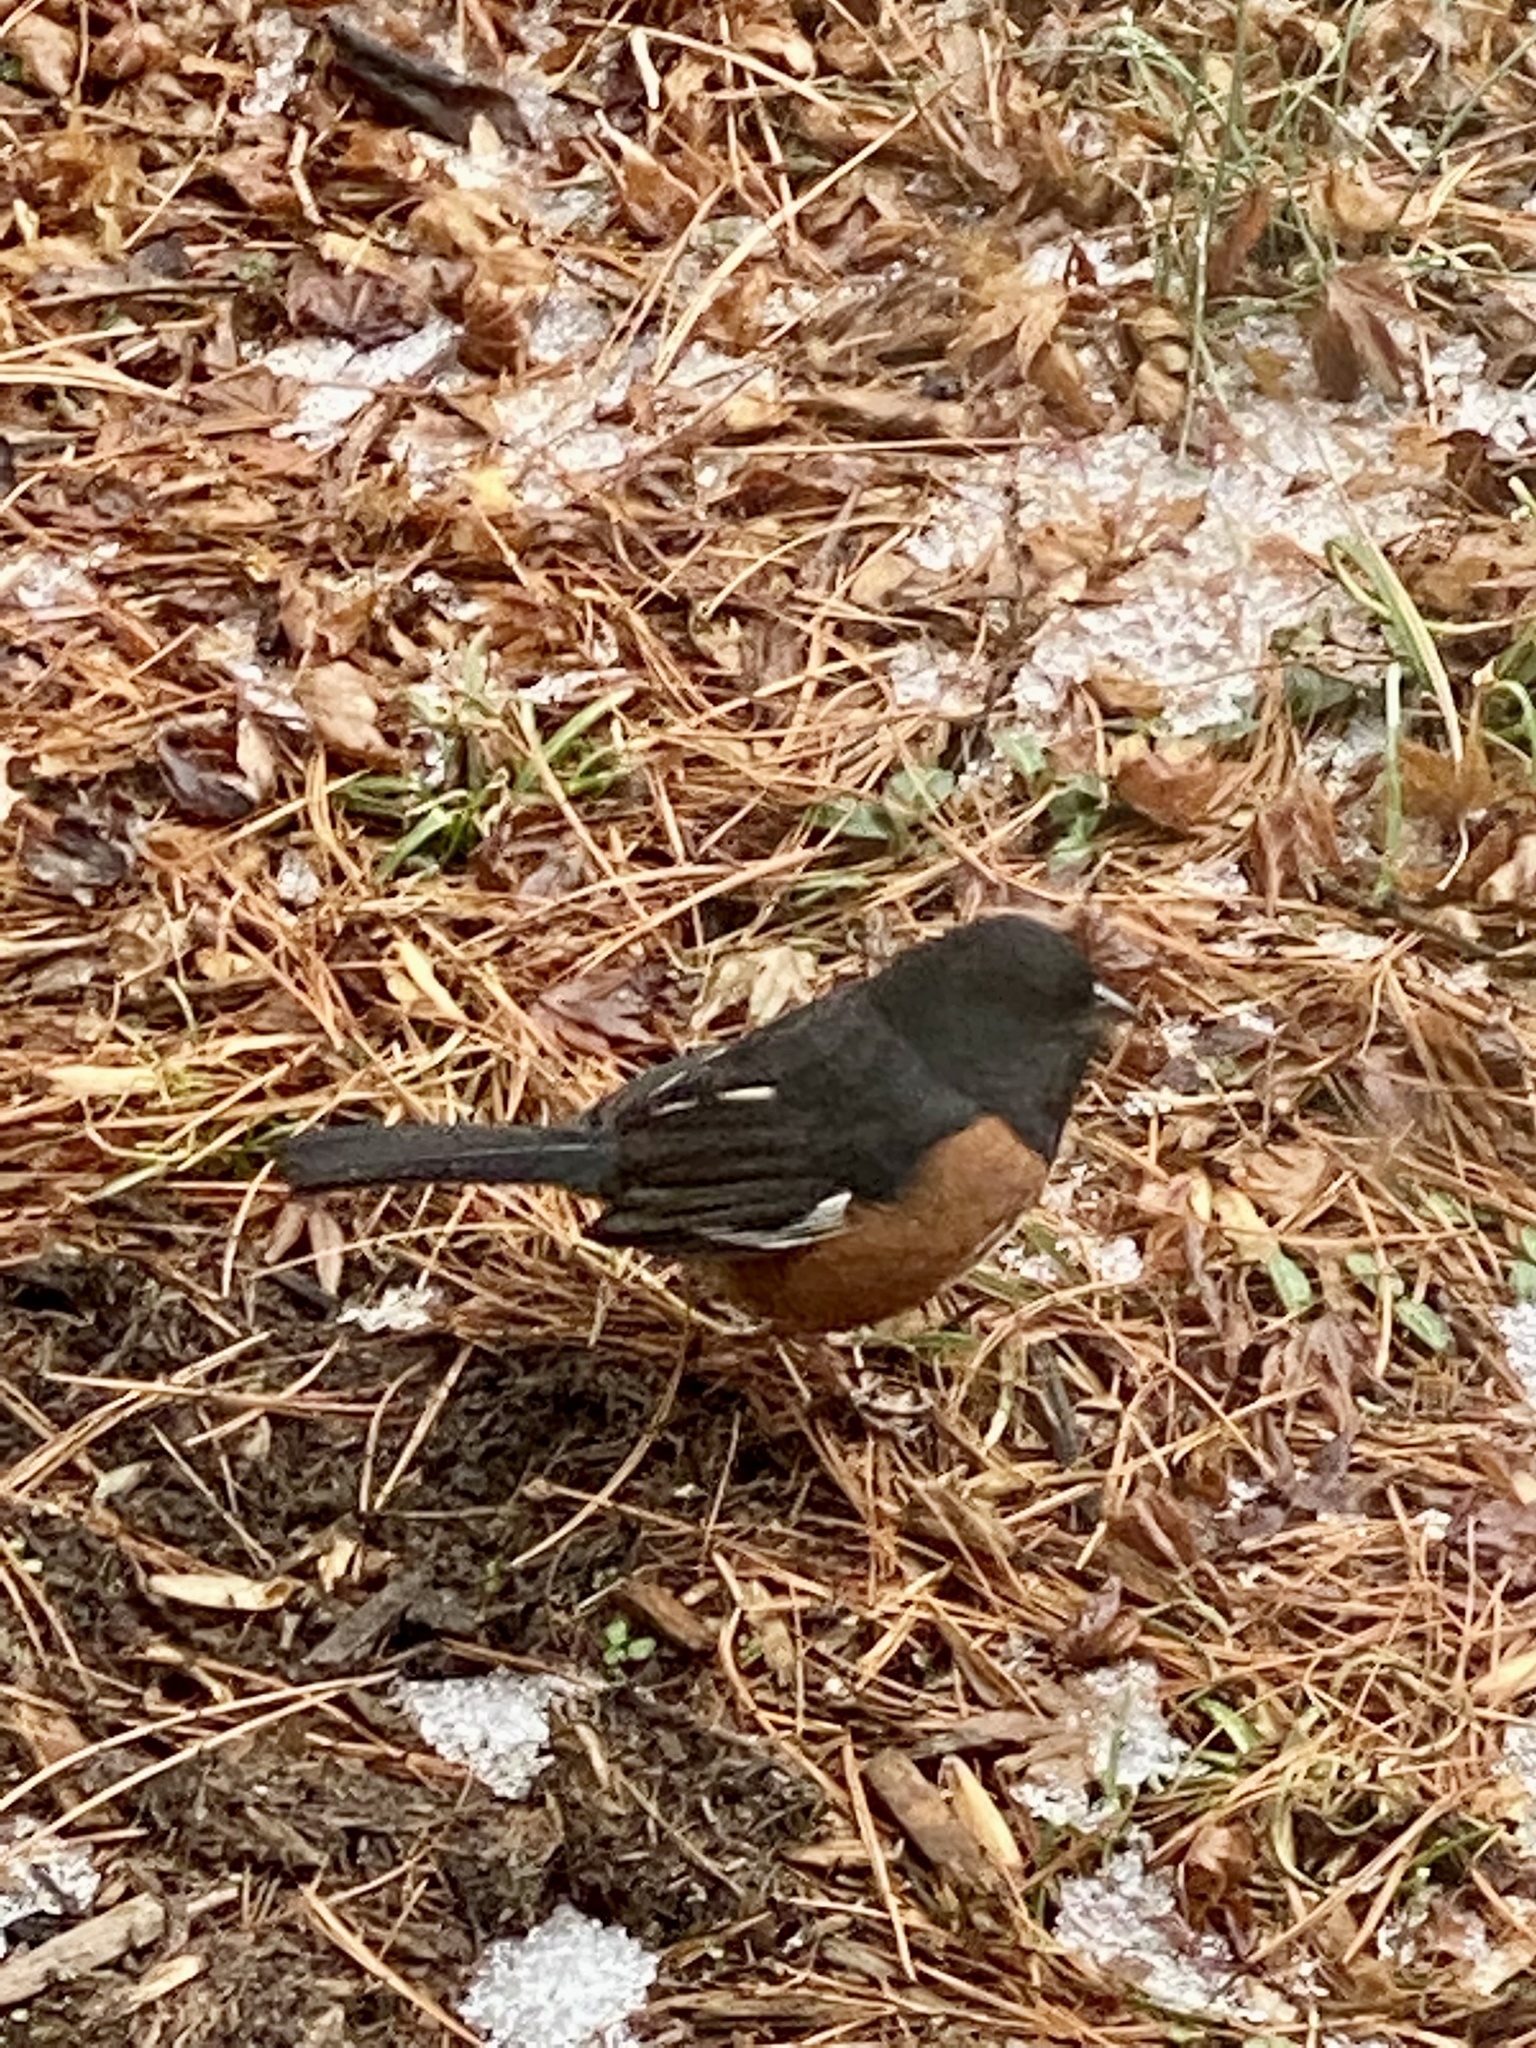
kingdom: Animalia
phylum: Chordata
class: Aves
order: Passeriformes
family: Passerellidae
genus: Pipilo
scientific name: Pipilo erythrophthalmus
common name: Eastern towhee
